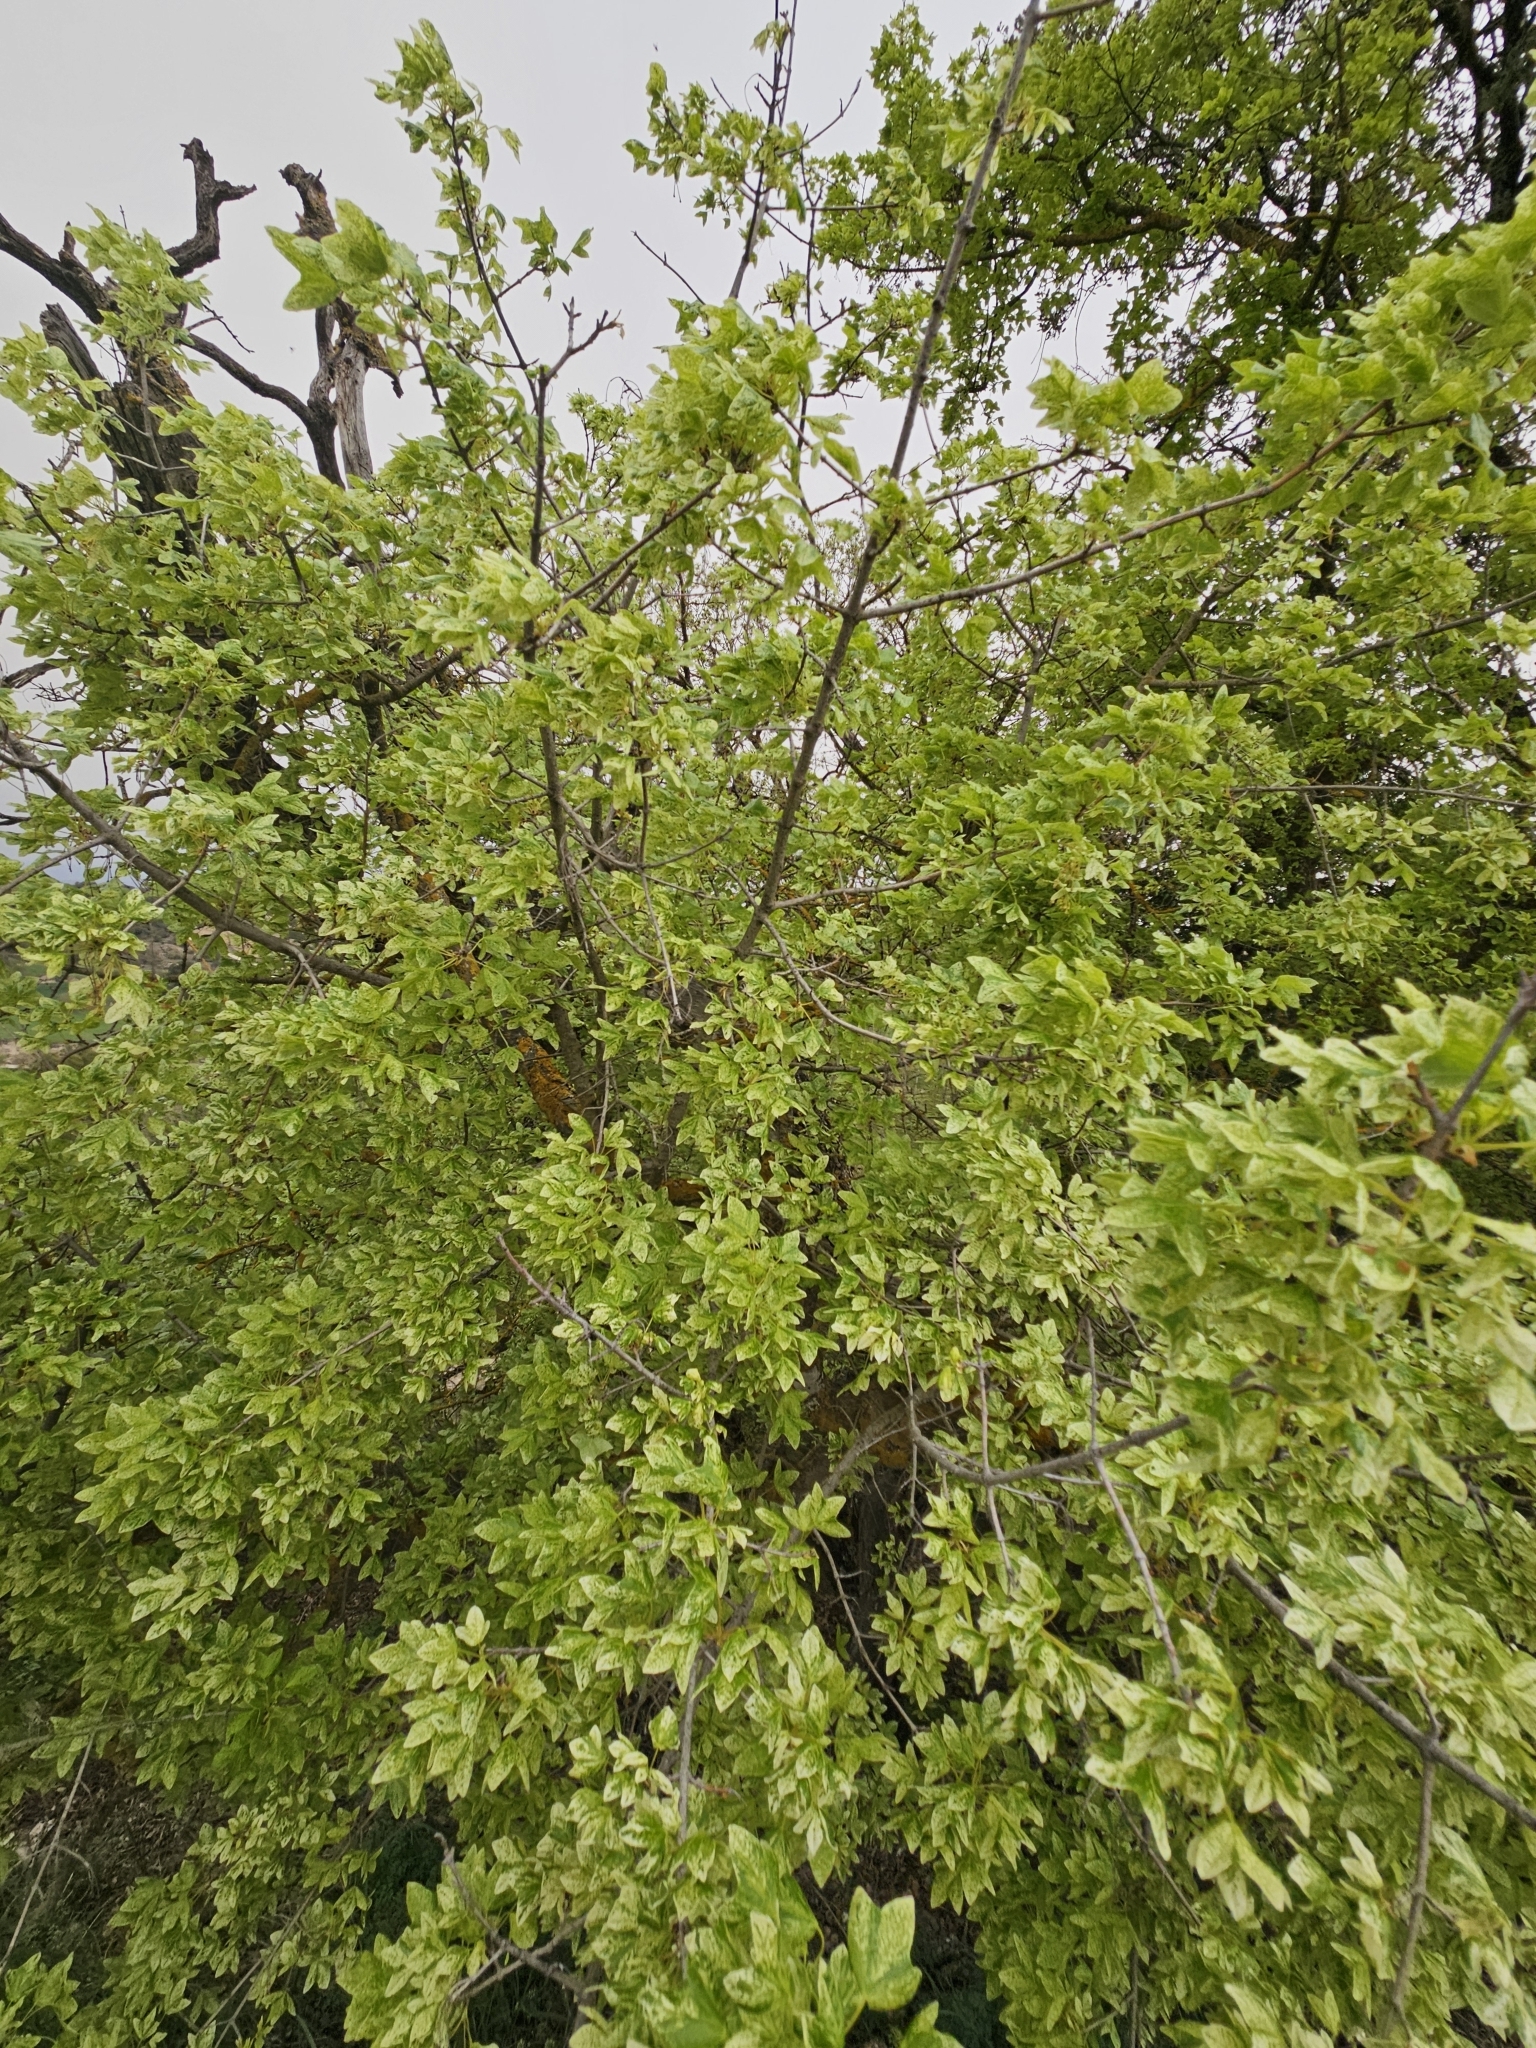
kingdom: Plantae
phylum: Tracheophyta
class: Magnoliopsida
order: Sapindales
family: Sapindaceae
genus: Acer
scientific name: Acer monspessulanum
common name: Montpellier maple
